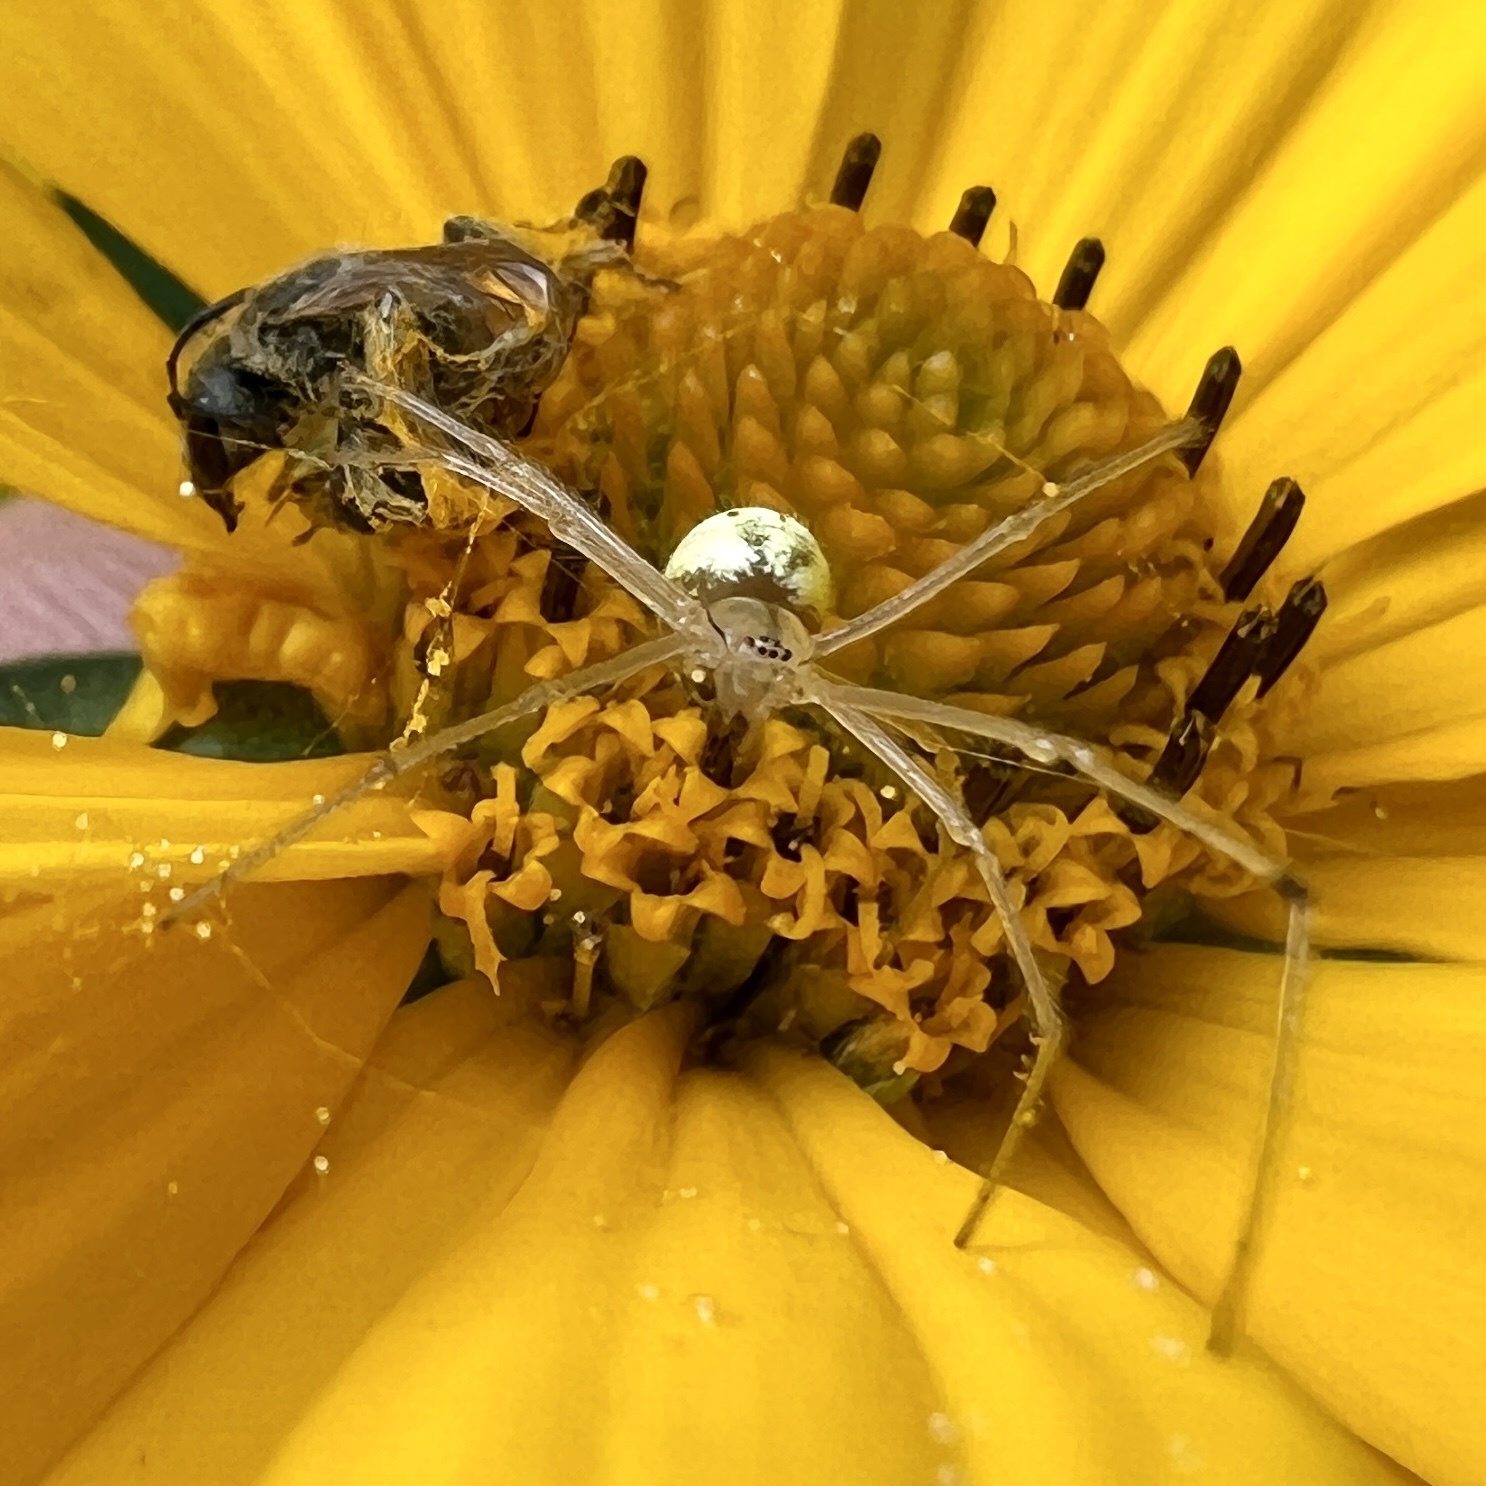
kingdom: Animalia
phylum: Arthropoda
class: Arachnida
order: Araneae
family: Theridiidae
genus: Enoplognatha
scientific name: Enoplognatha ovata
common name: Common candy-striped spider
